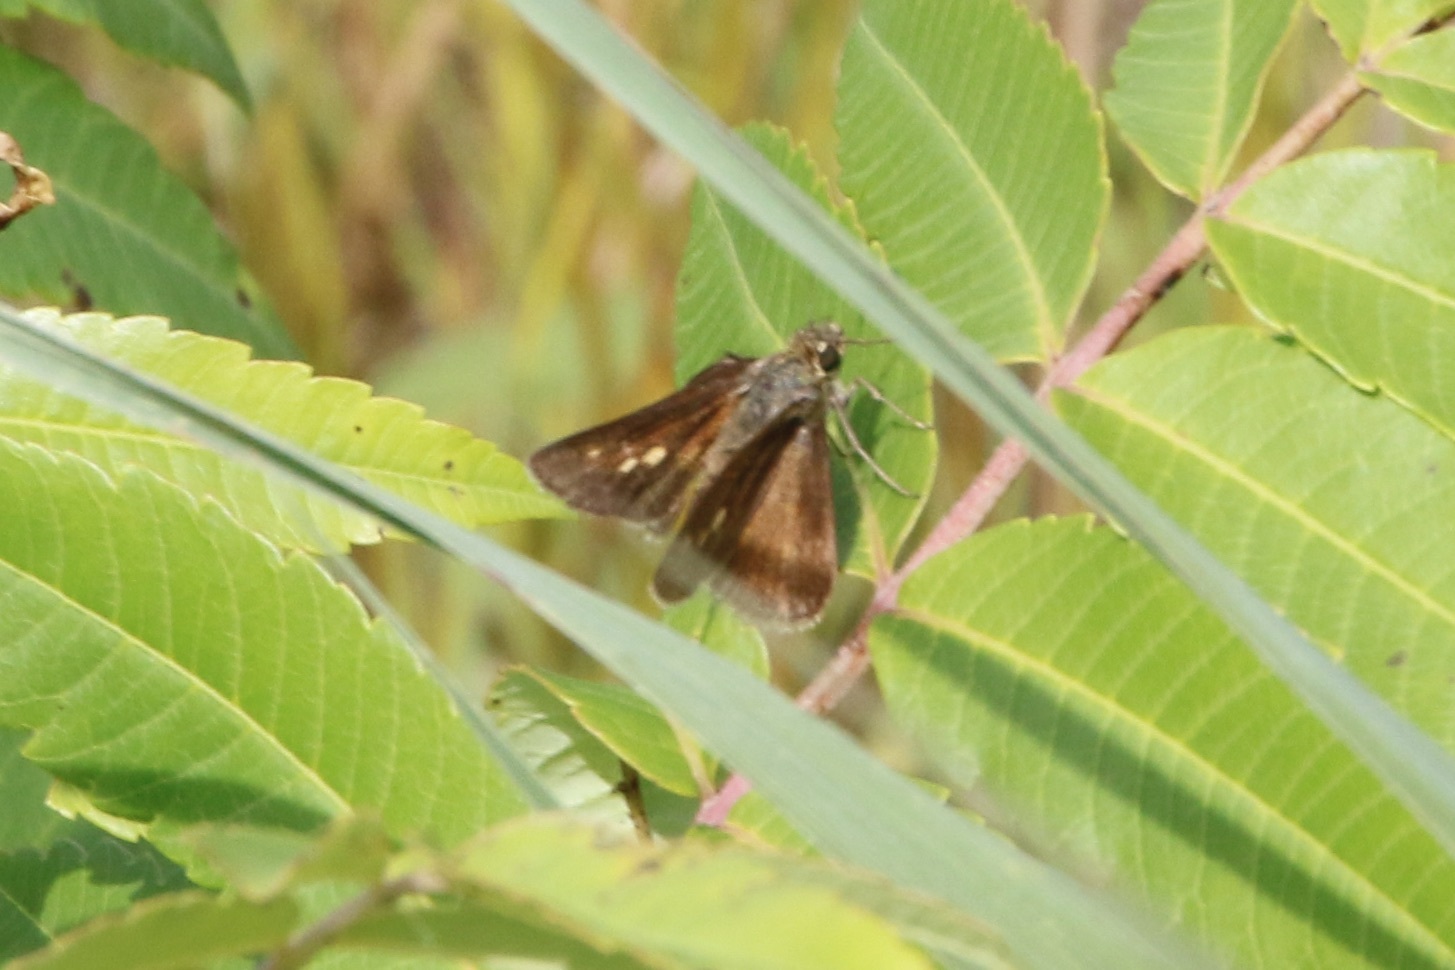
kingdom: Animalia
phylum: Arthropoda
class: Insecta
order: Lepidoptera
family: Hesperiidae
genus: Polites
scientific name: Polites egeremet
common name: Northern broken-dash
